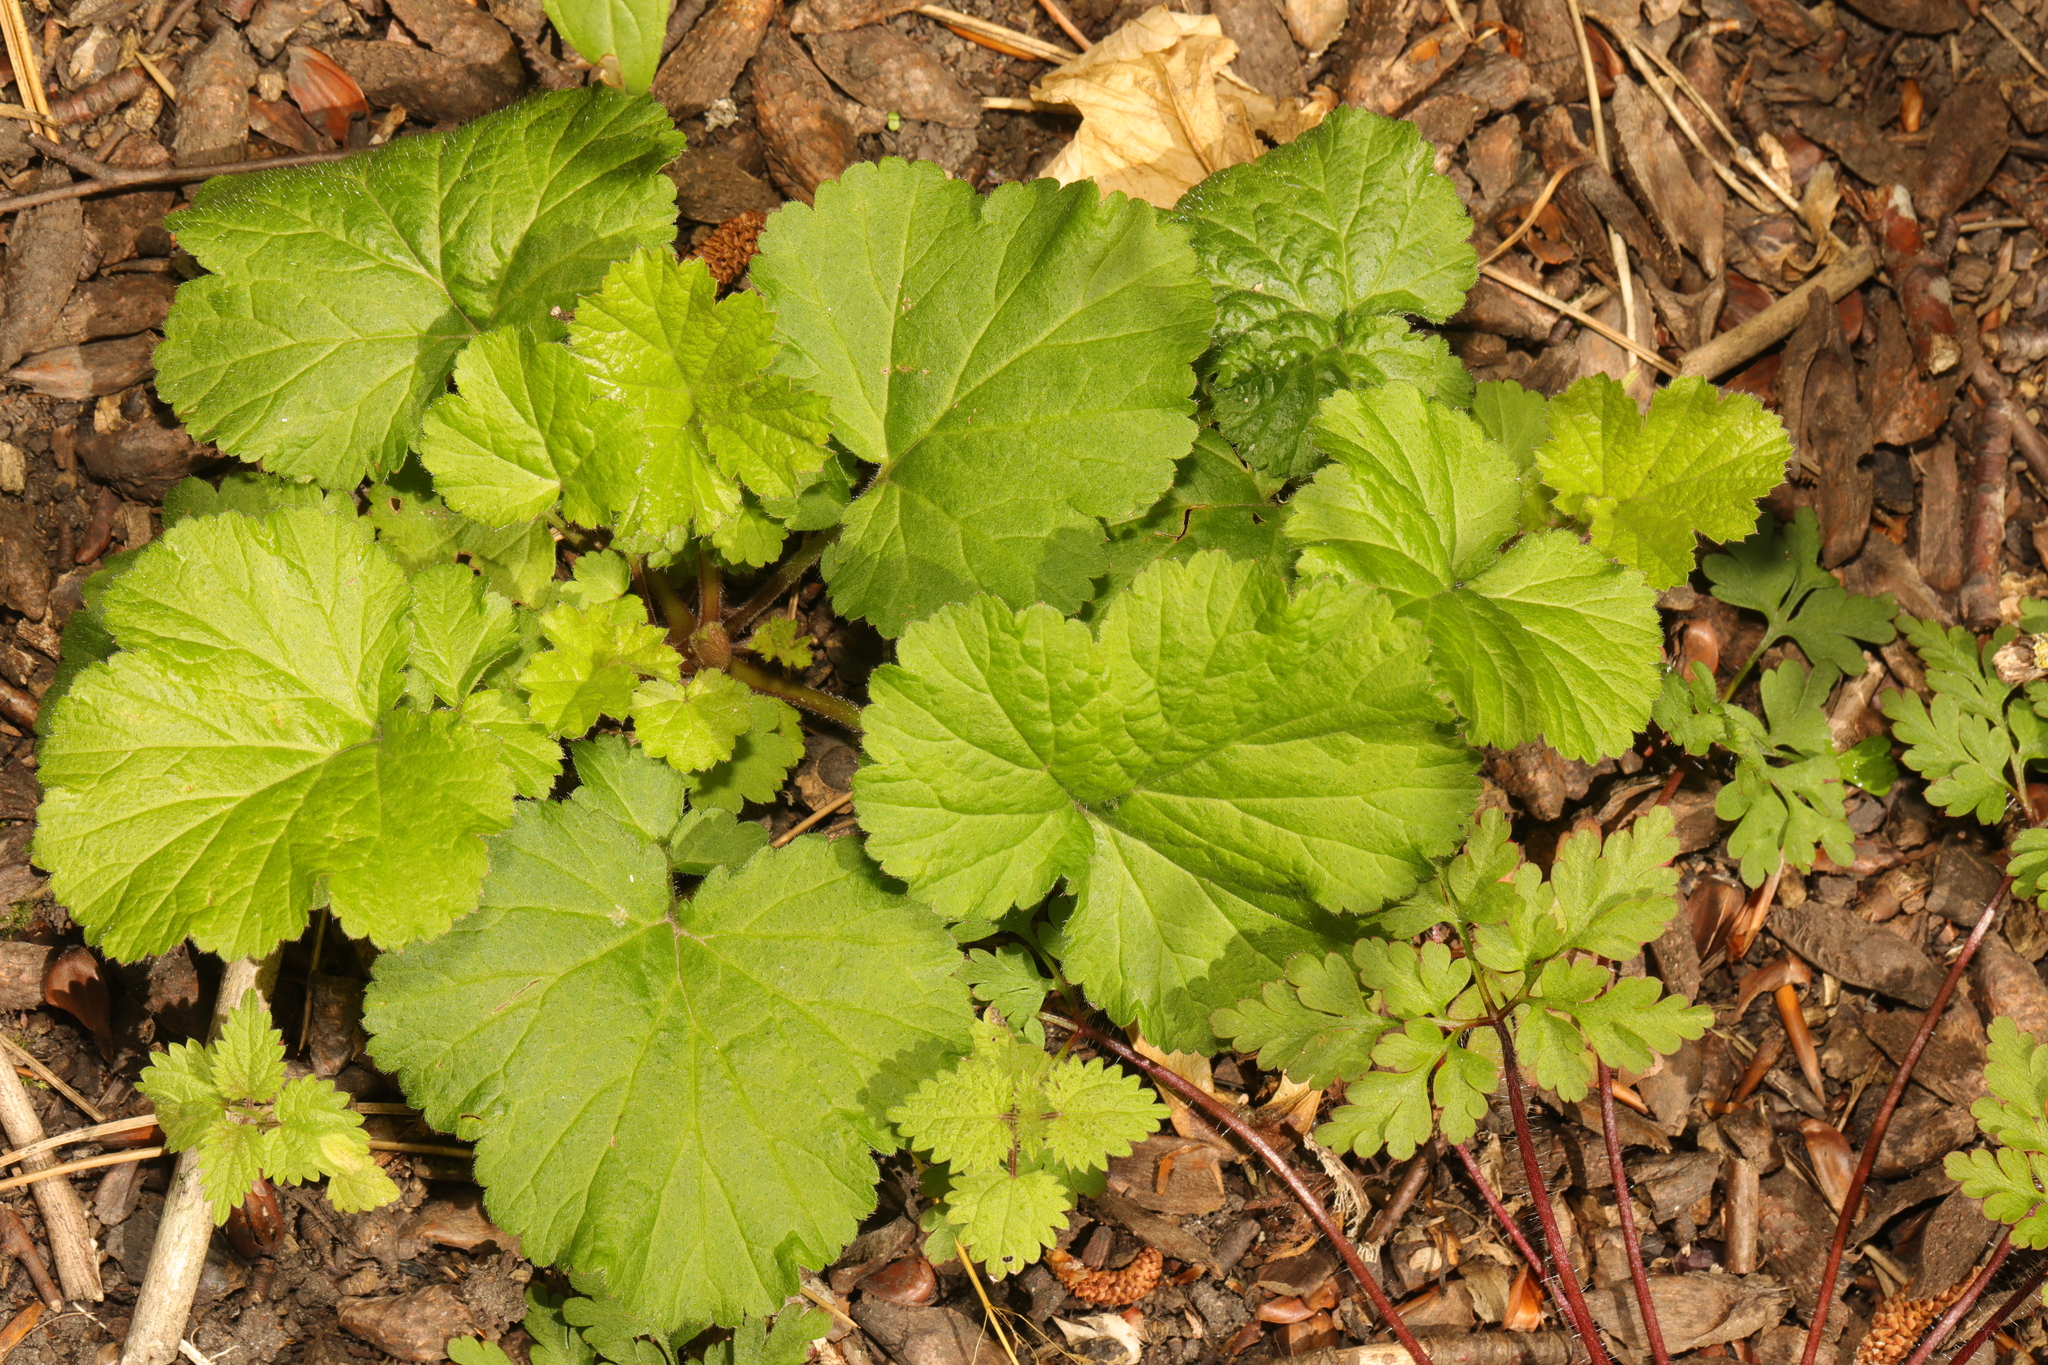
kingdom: Plantae
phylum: Tracheophyta
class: Magnoliopsida
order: Rosales
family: Rosaceae
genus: Geum
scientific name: Geum urbanum
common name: Wood avens
